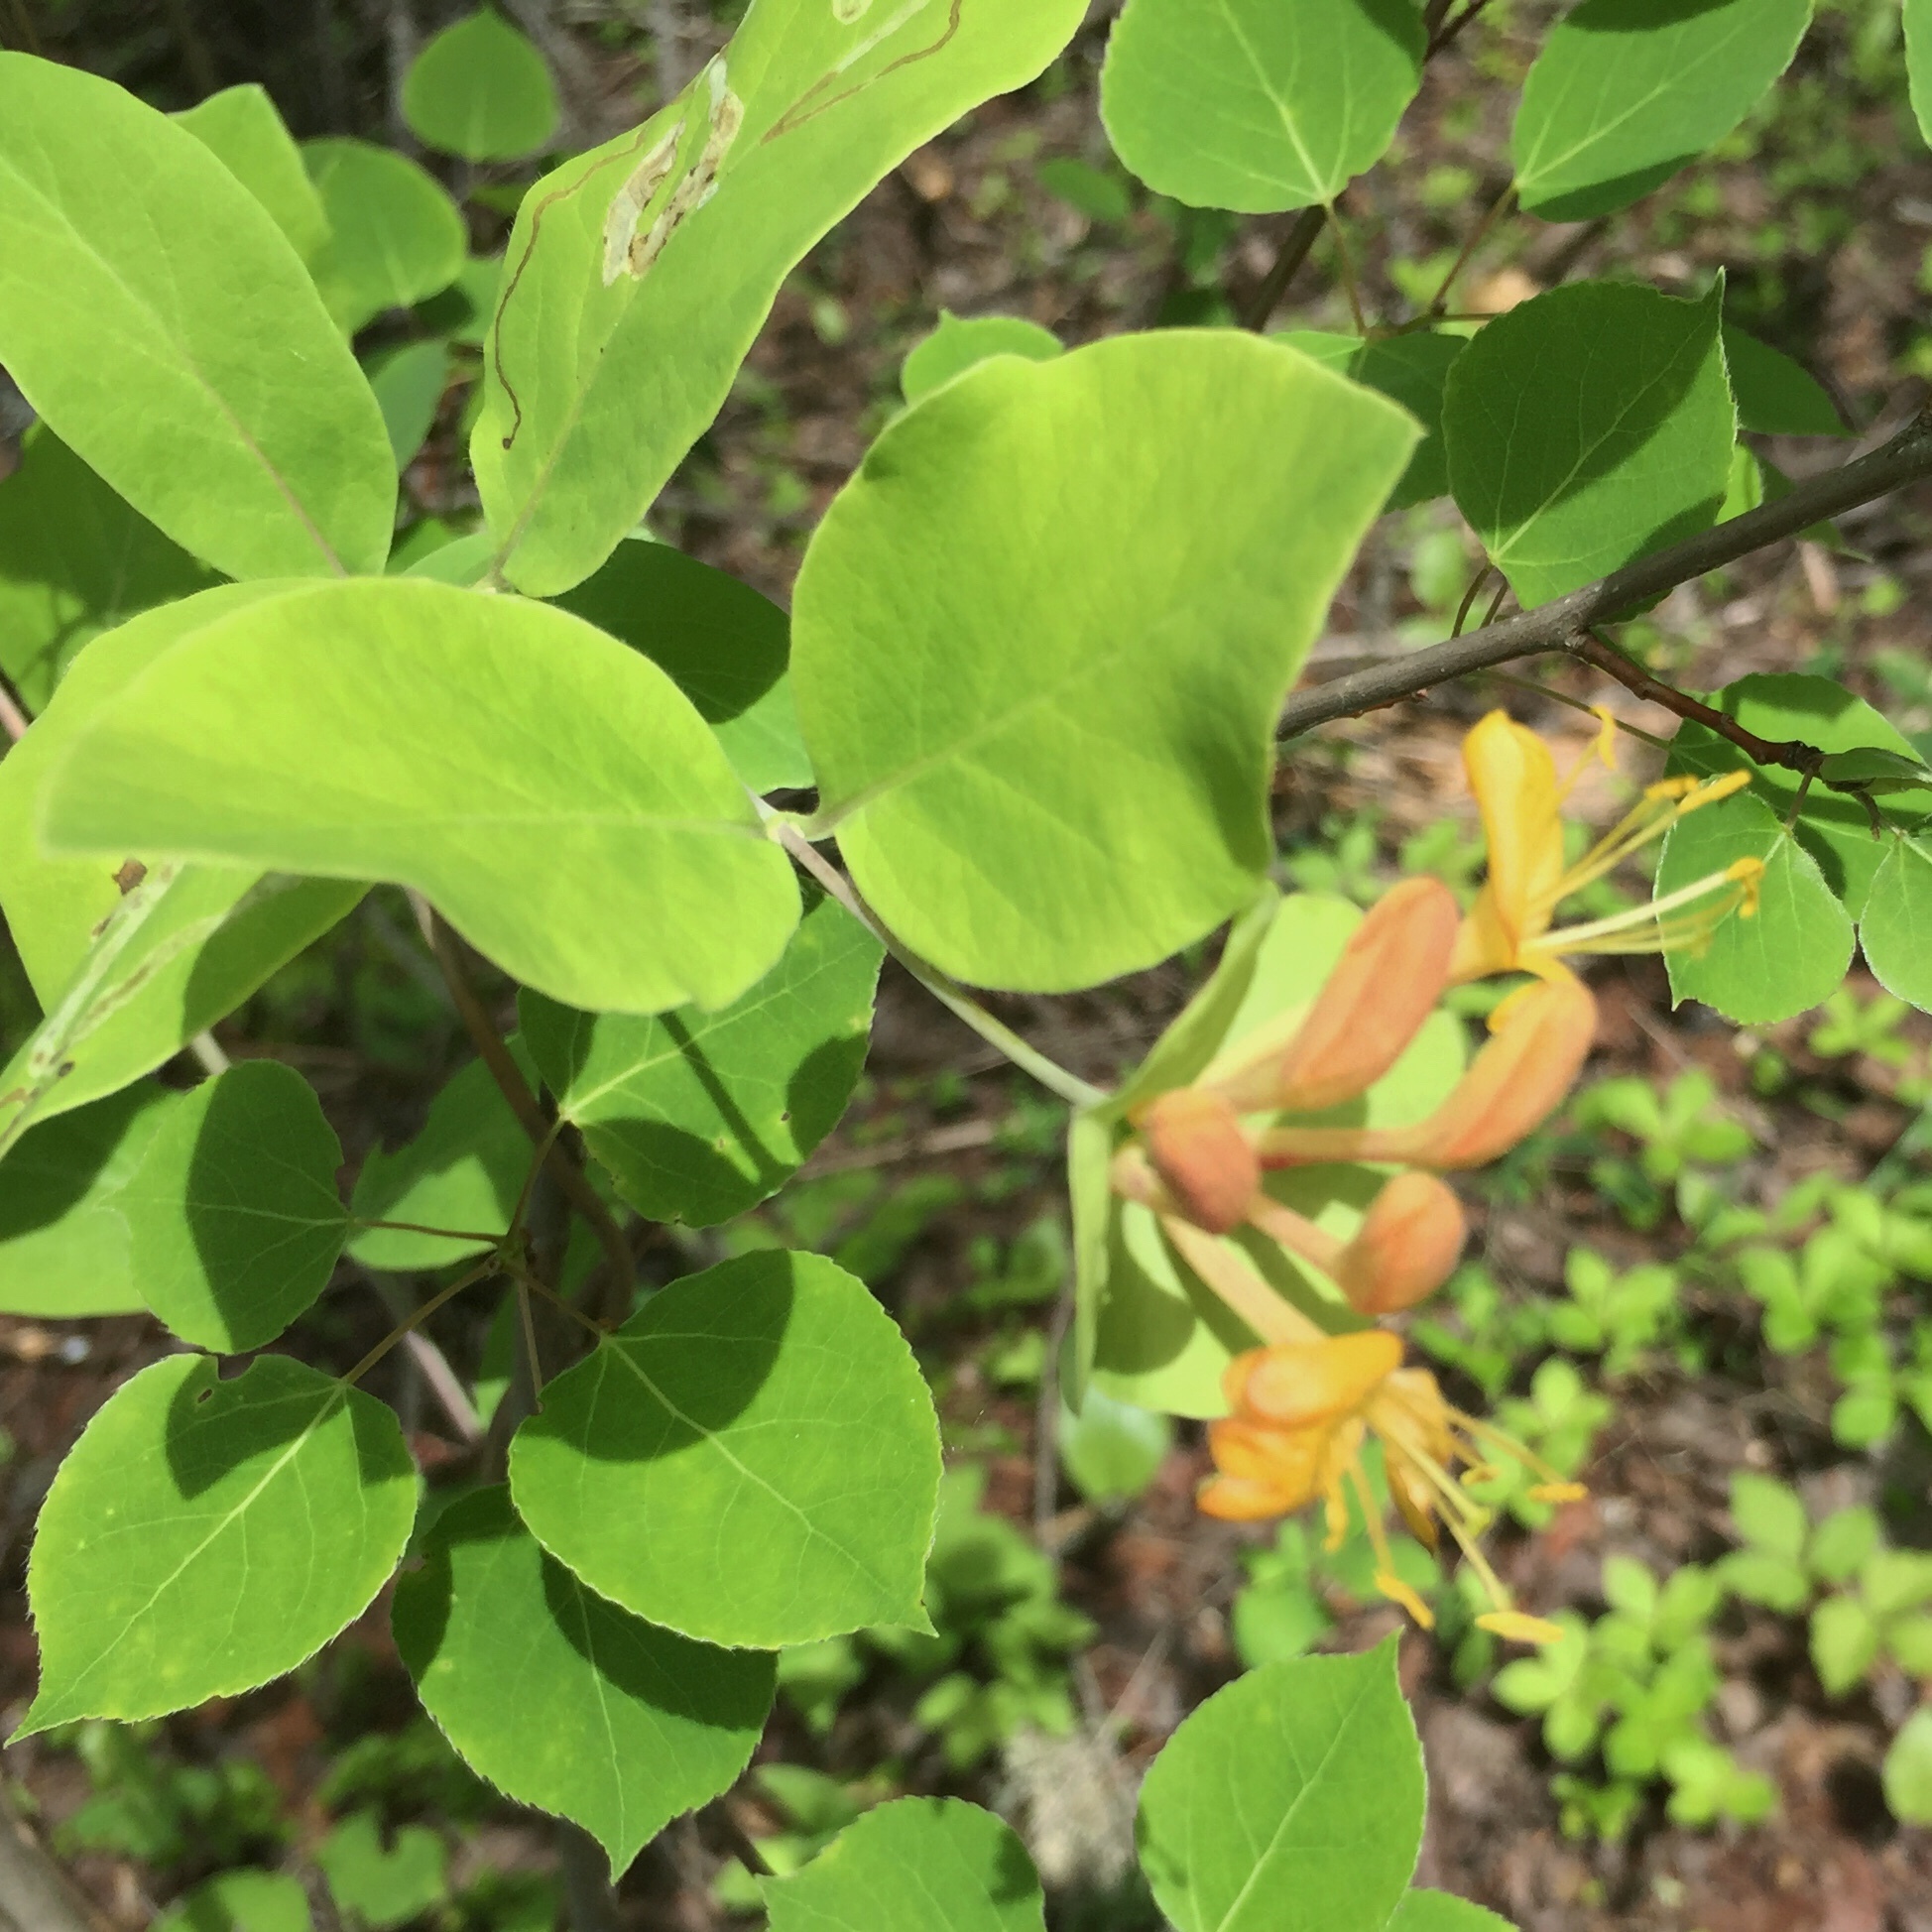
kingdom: Plantae
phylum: Tracheophyta
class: Magnoliopsida
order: Dipsacales
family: Caprifoliaceae
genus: Lonicera
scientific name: Lonicera dioica
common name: Limber honeysuckle
